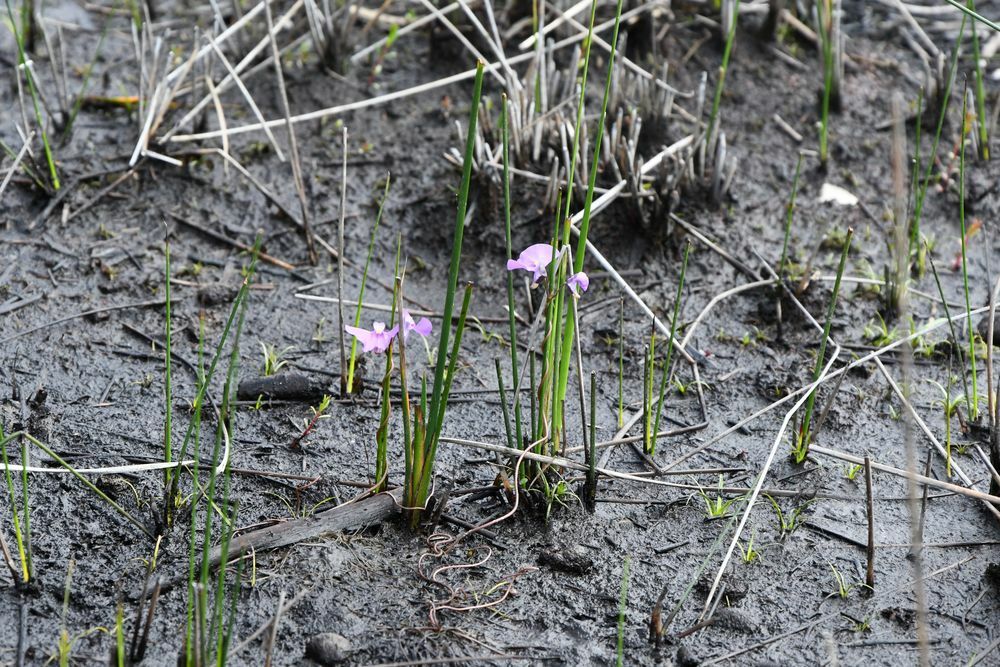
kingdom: Plantae
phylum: Tracheophyta
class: Magnoliopsida
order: Lamiales
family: Lentibulariaceae
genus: Utricularia
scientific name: Utricularia volubilis
